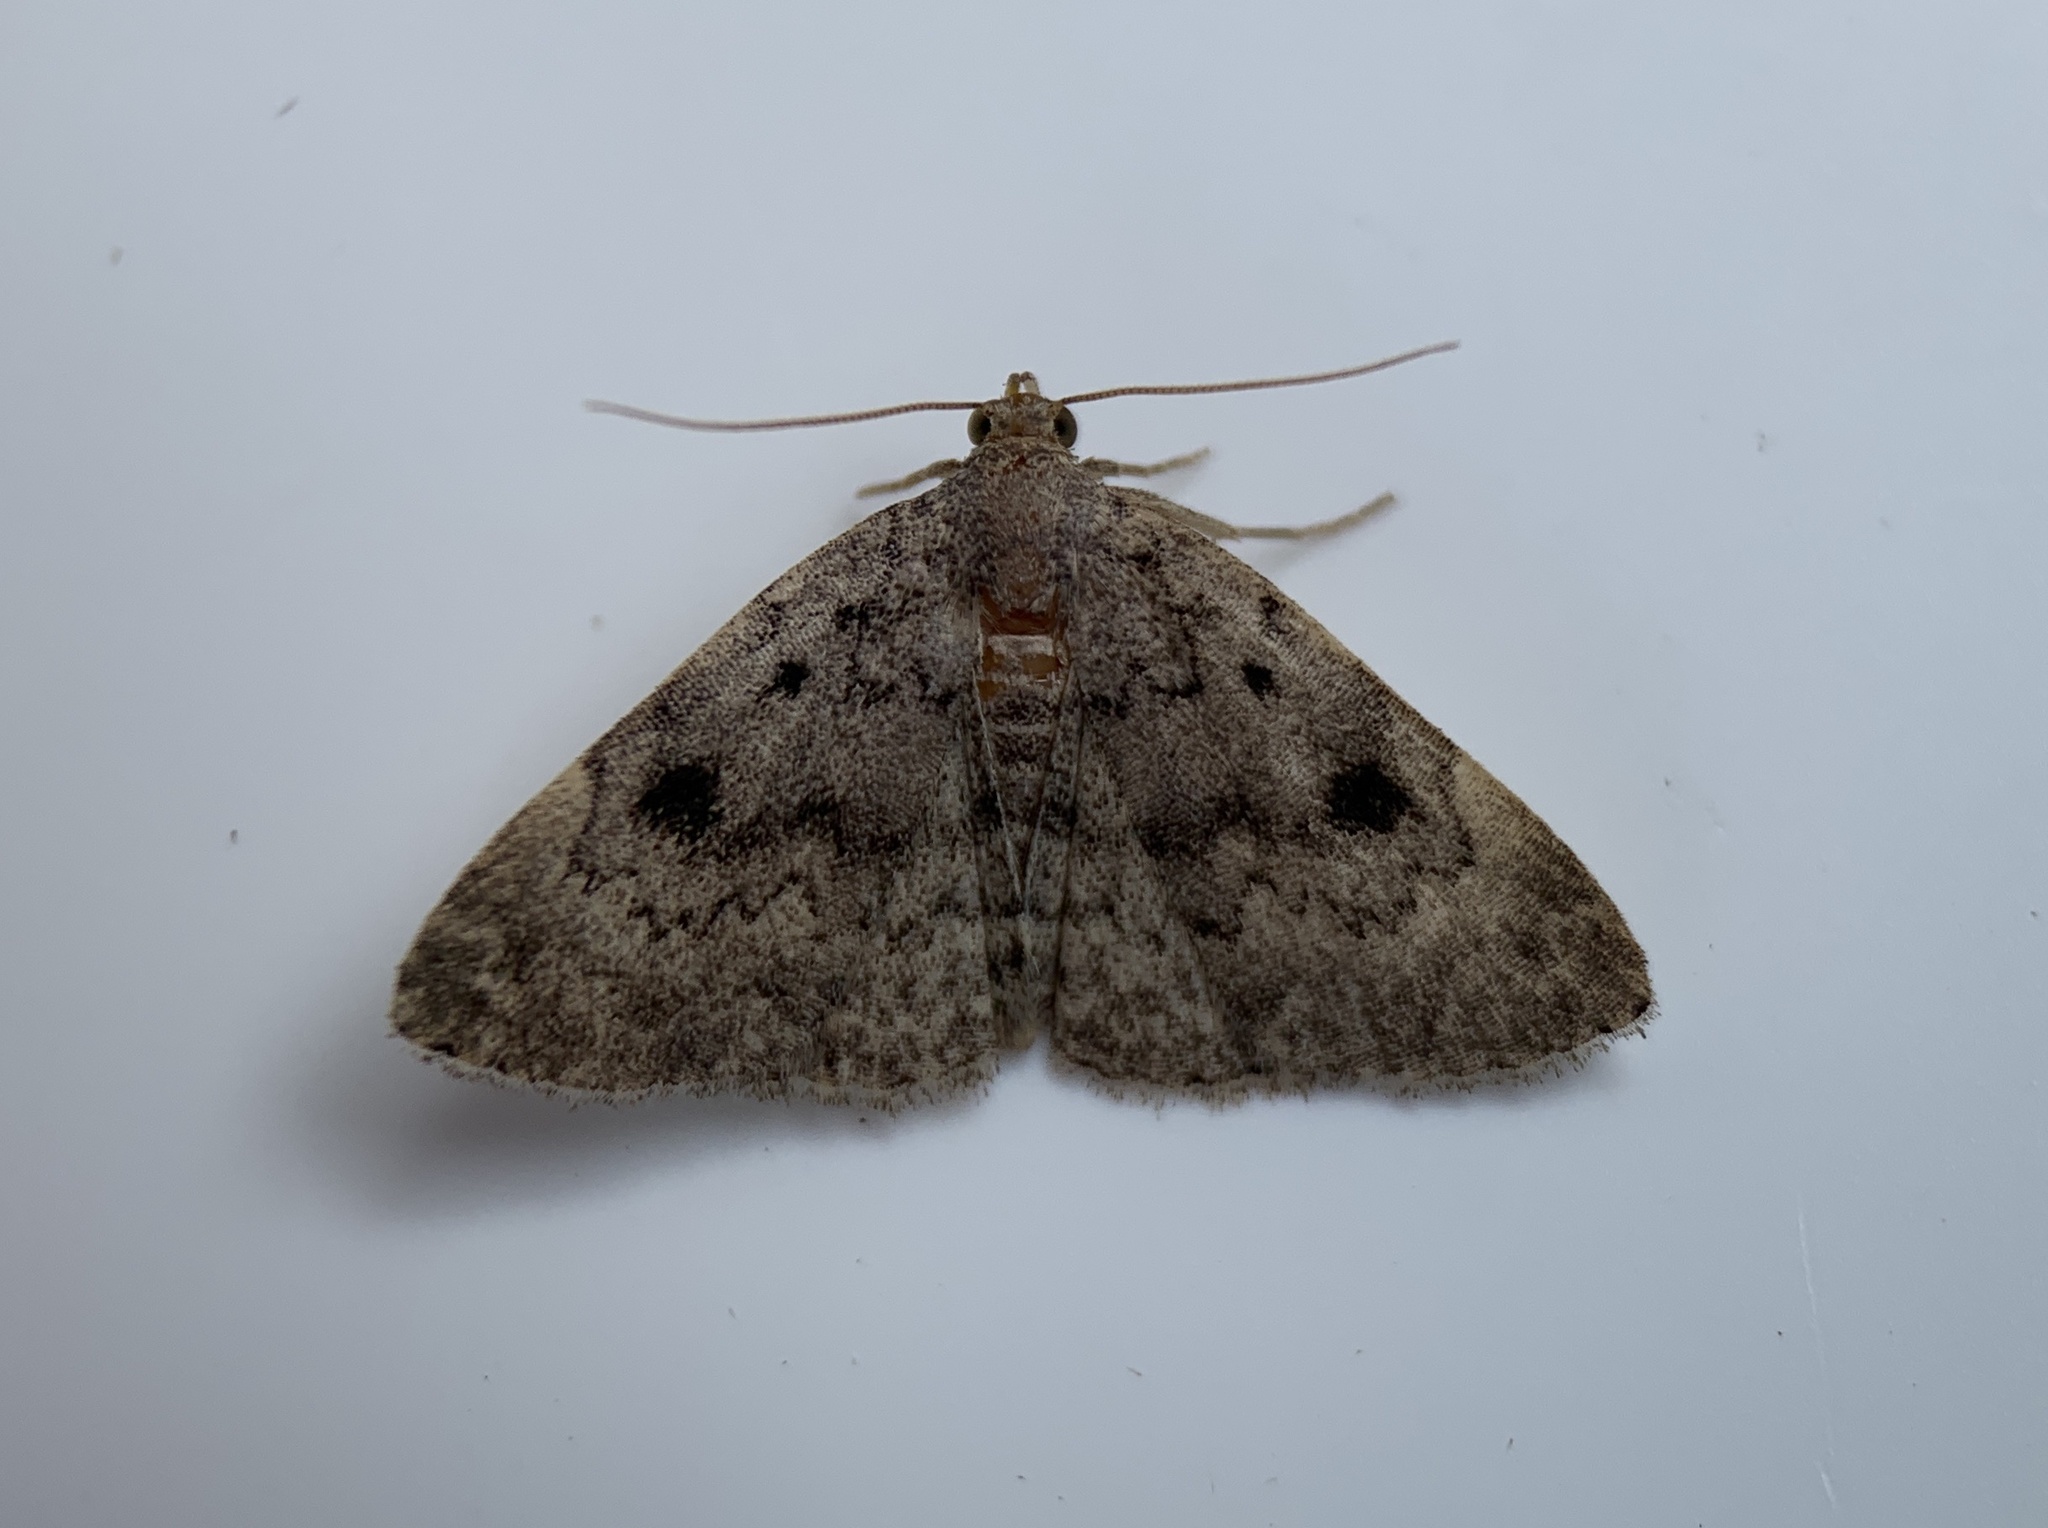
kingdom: Animalia
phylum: Arthropoda
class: Insecta
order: Lepidoptera
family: Erebidae
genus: Idia
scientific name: Idia aemula
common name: Common idia moth
